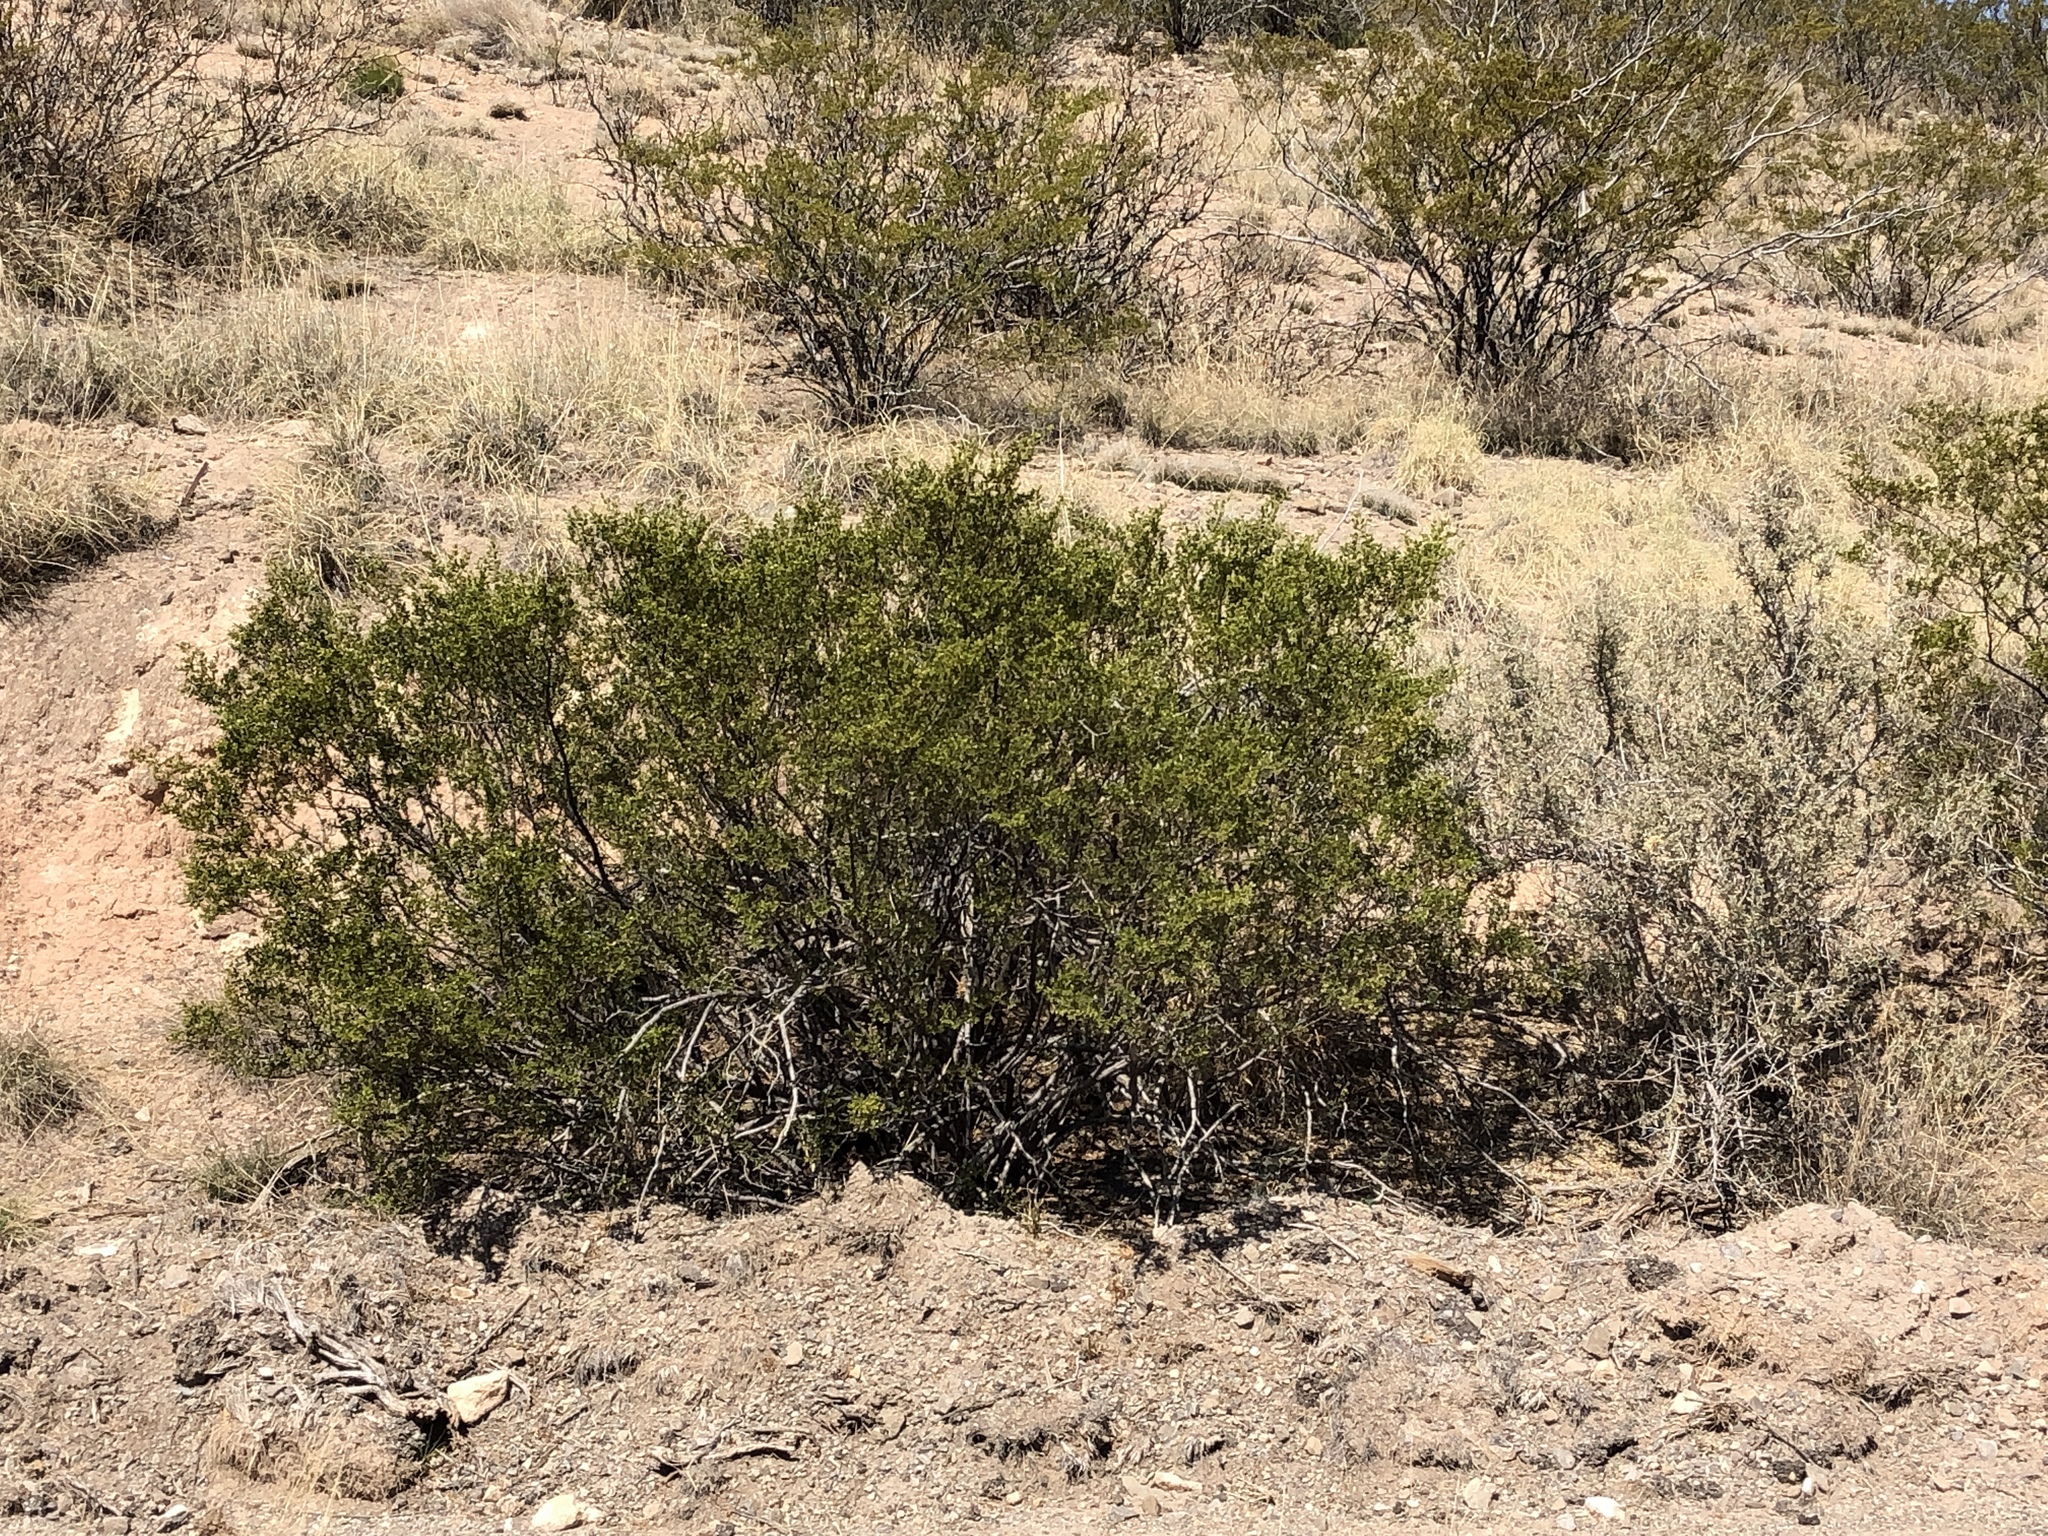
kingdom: Plantae
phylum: Tracheophyta
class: Magnoliopsida
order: Zygophyllales
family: Zygophyllaceae
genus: Larrea
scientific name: Larrea tridentata
